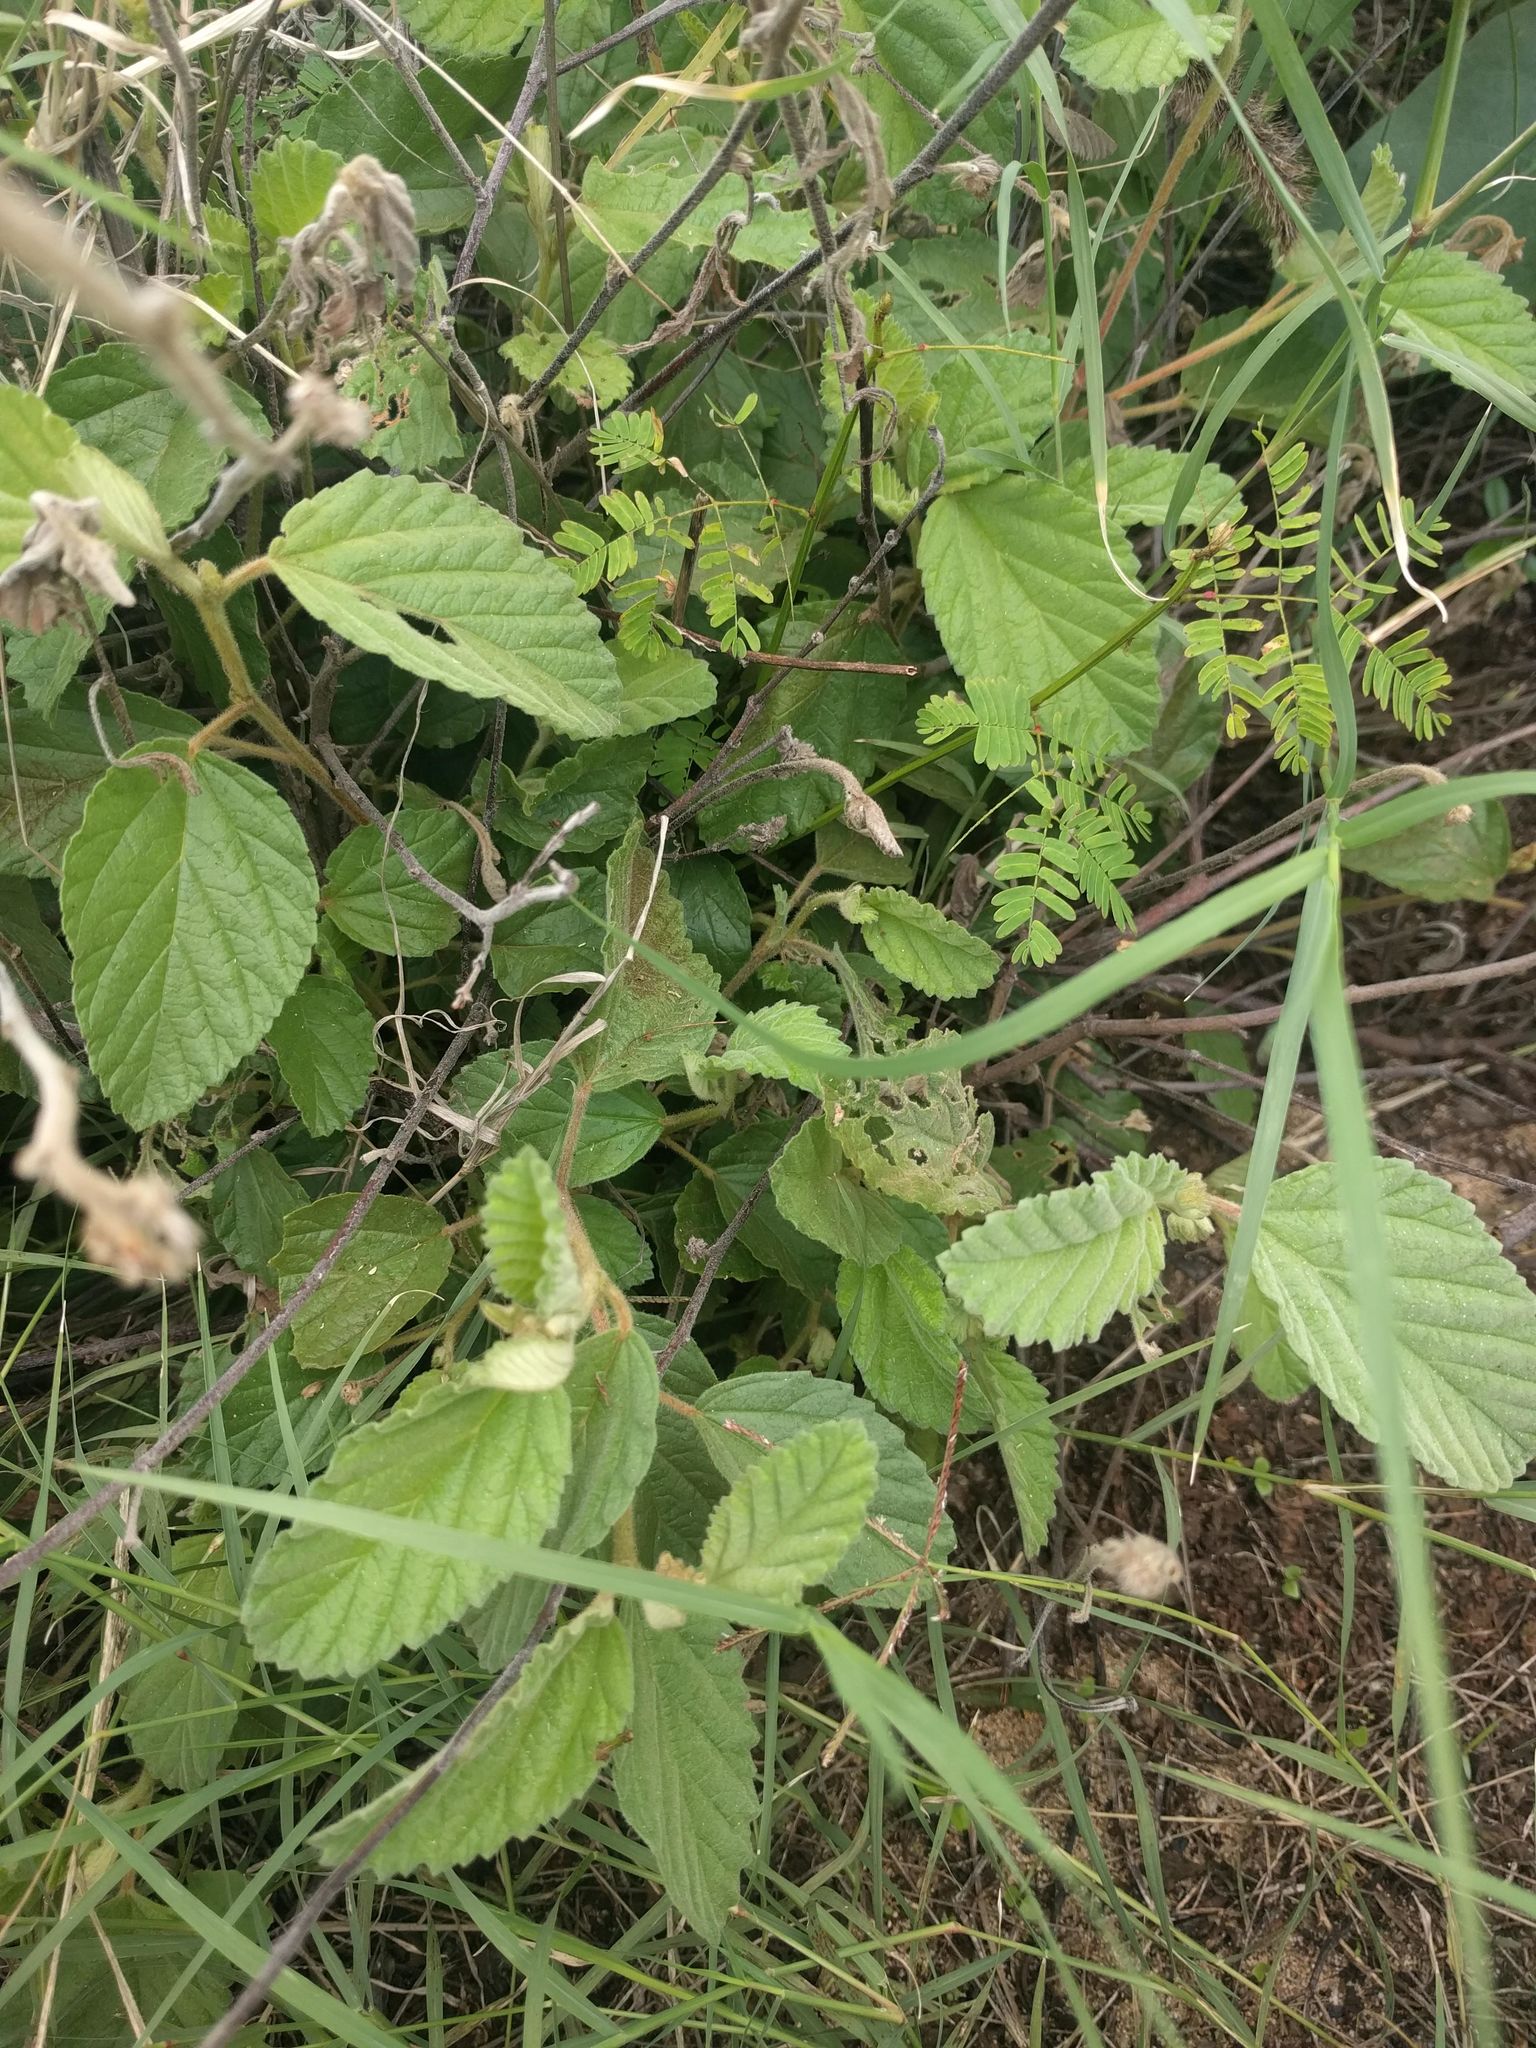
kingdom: Plantae
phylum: Tracheophyta
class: Magnoliopsida
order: Malvales
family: Malvaceae
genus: Waltheria
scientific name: Waltheria indica
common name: Leather-coat
